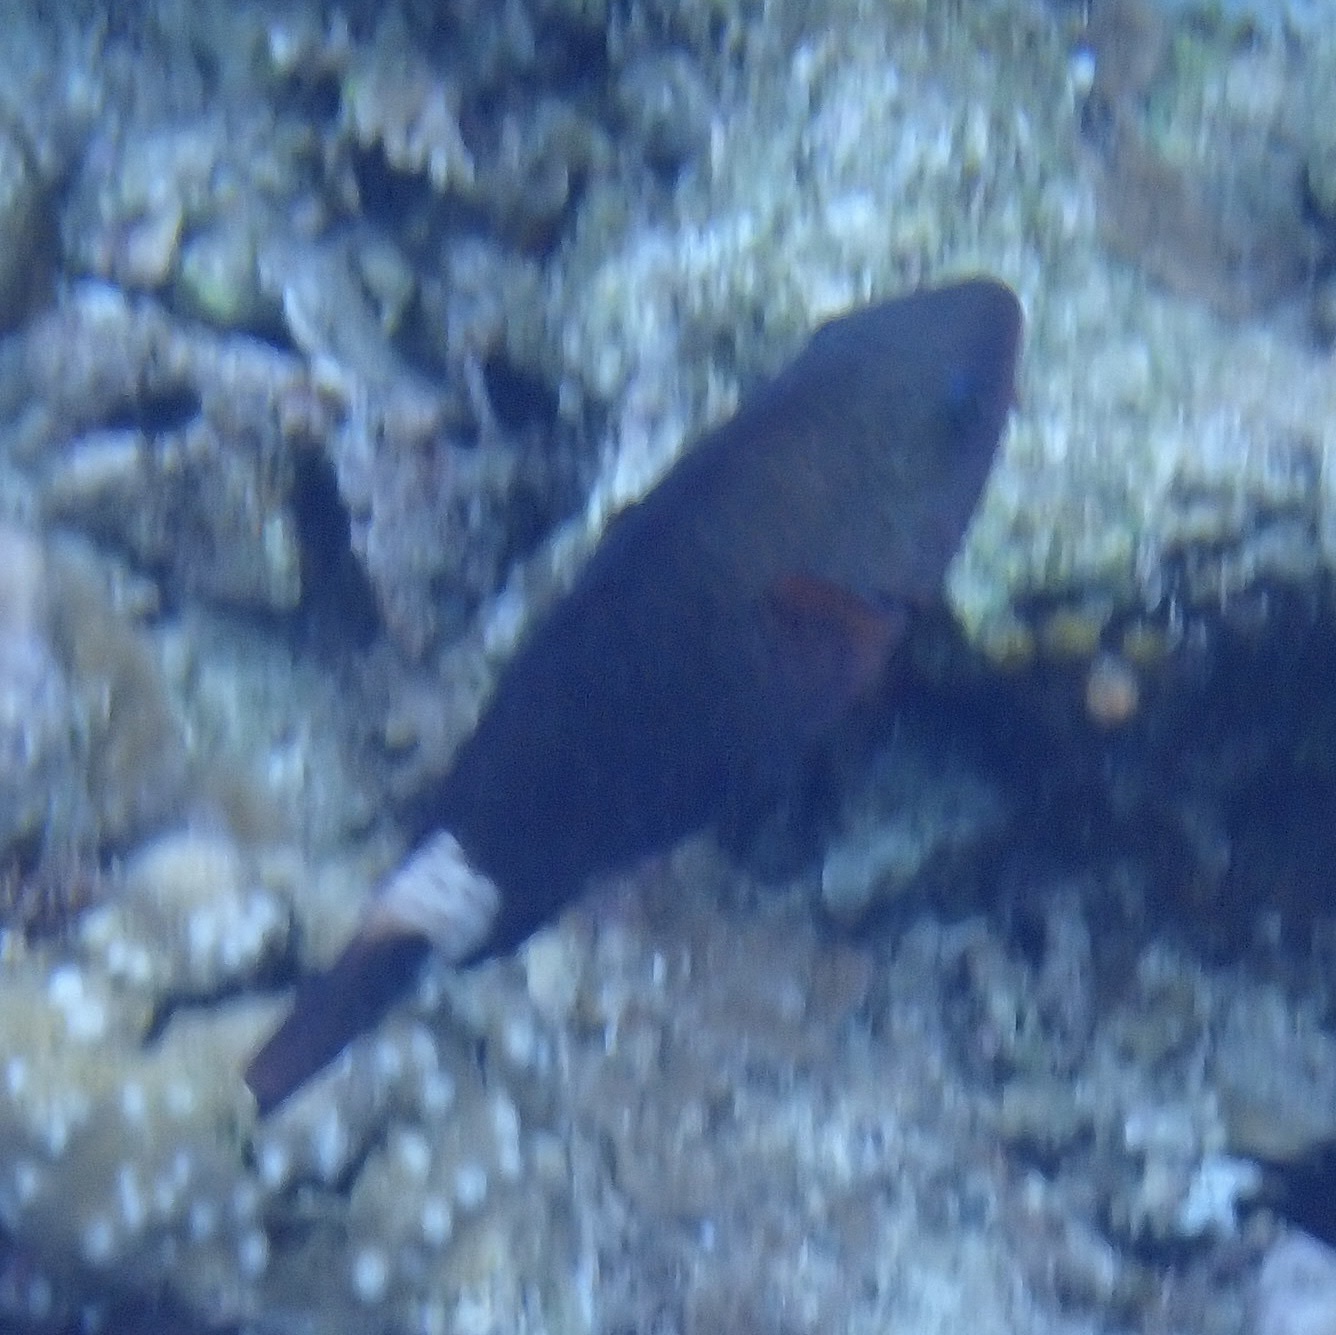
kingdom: Animalia
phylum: Chordata
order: Perciformes
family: Scaridae
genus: Chlorurus
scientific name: Chlorurus spilurus
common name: Bullethead parrotfish
